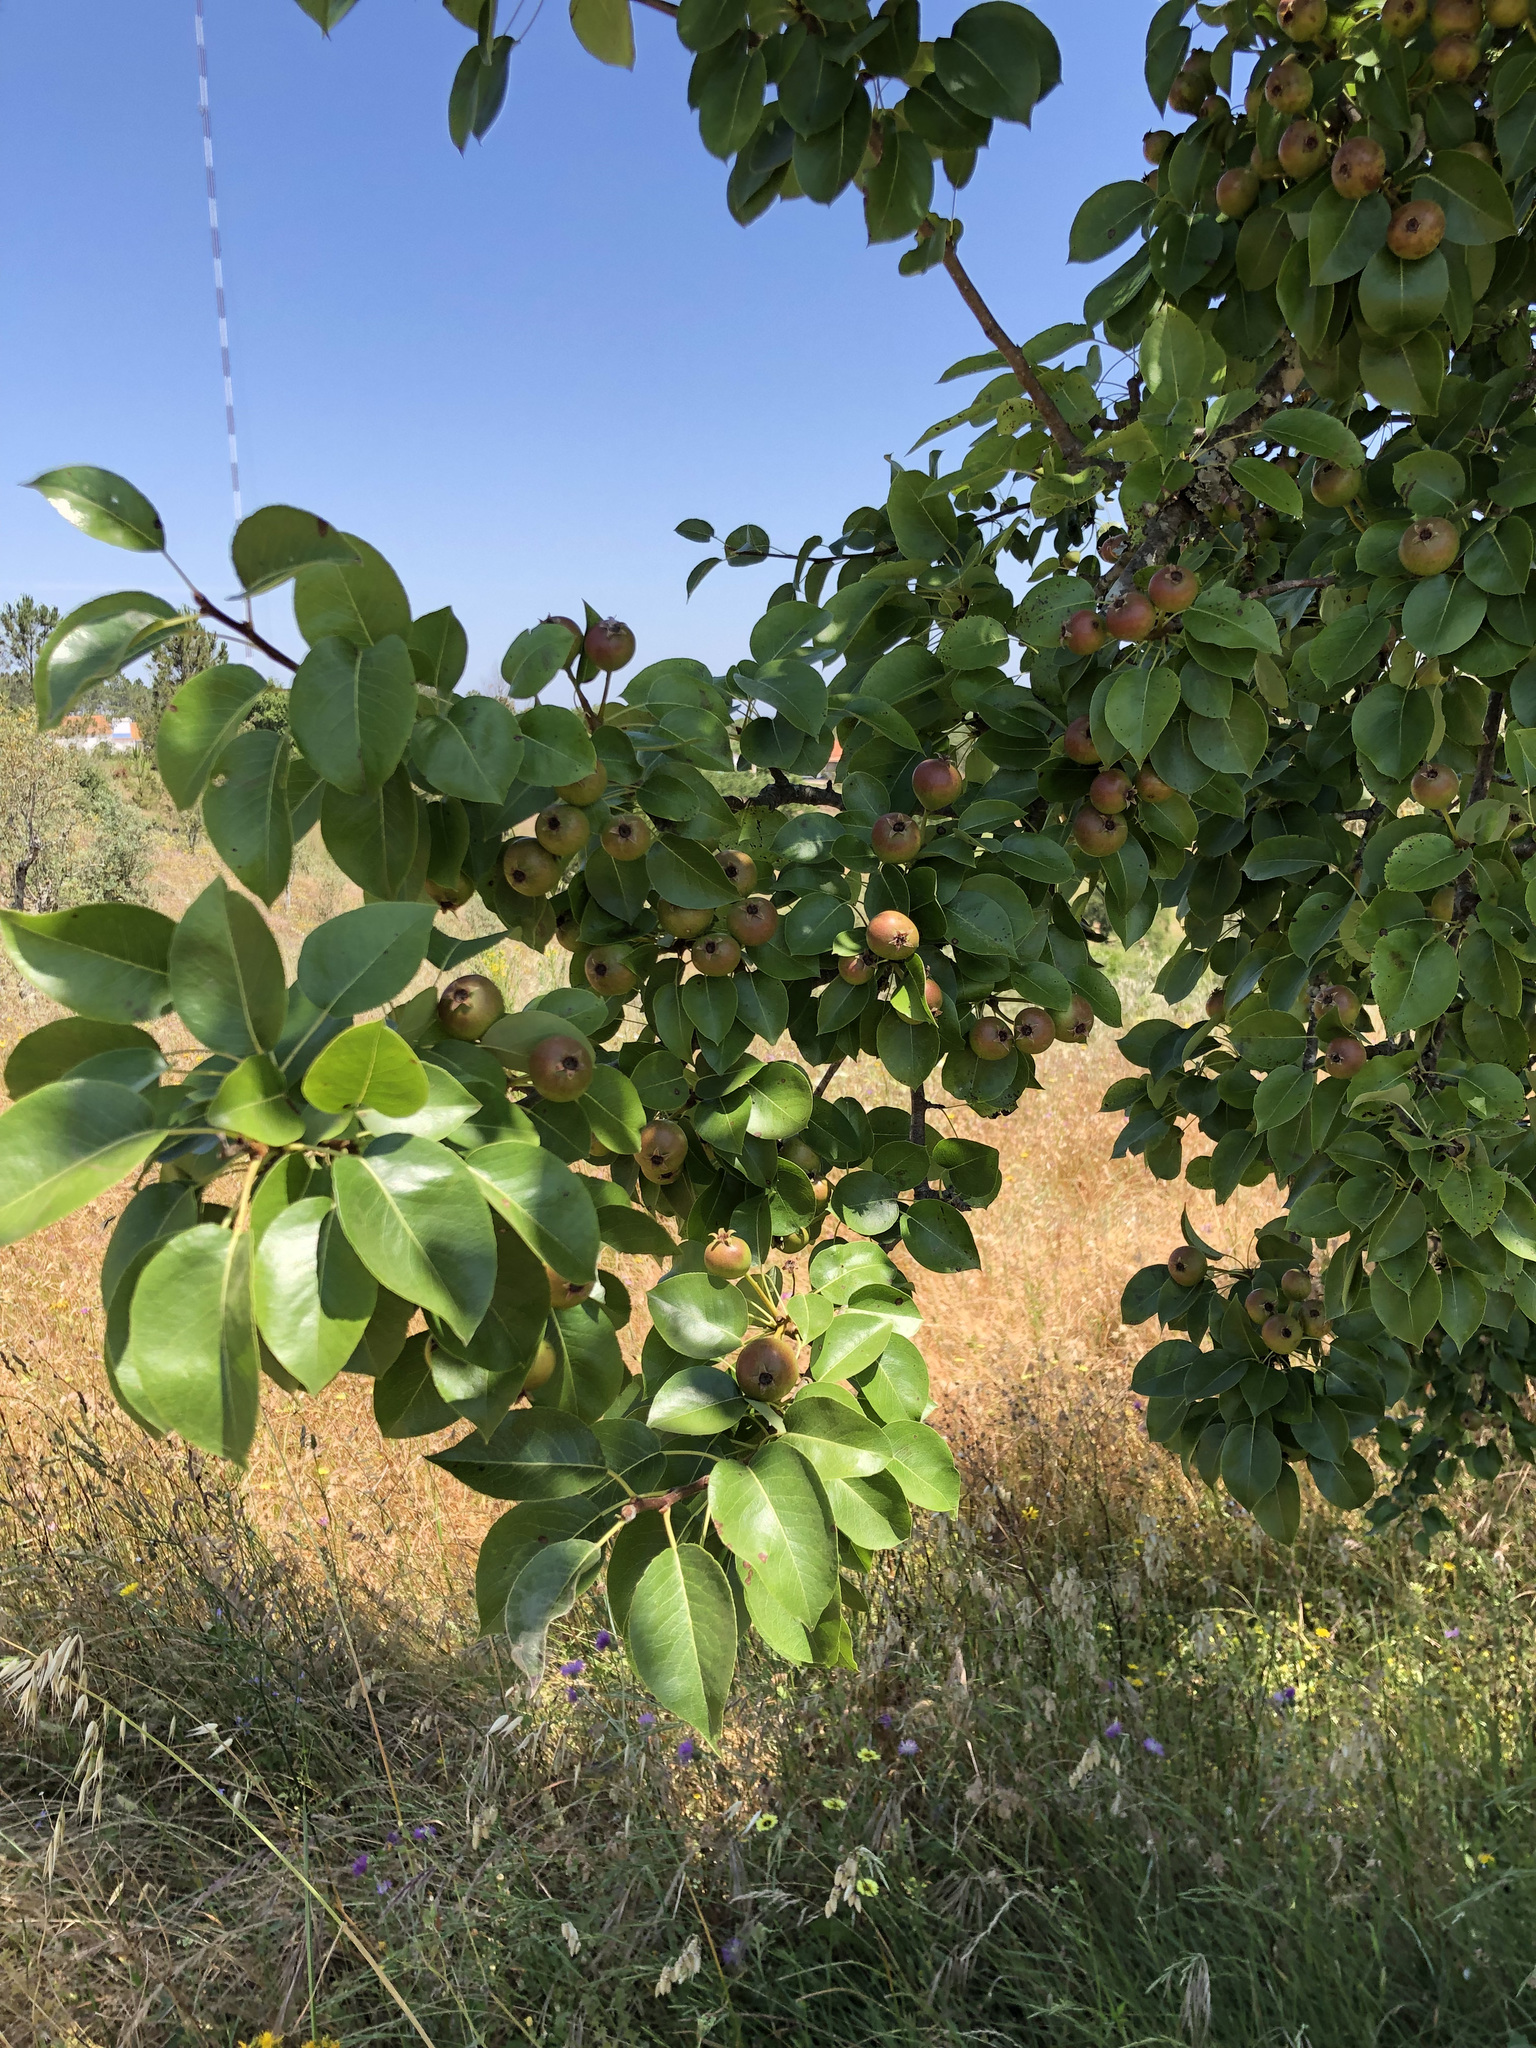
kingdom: Plantae
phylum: Tracheophyta
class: Magnoliopsida
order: Rosales
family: Rosaceae
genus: Pyrus
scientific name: Pyrus communis
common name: Pear
